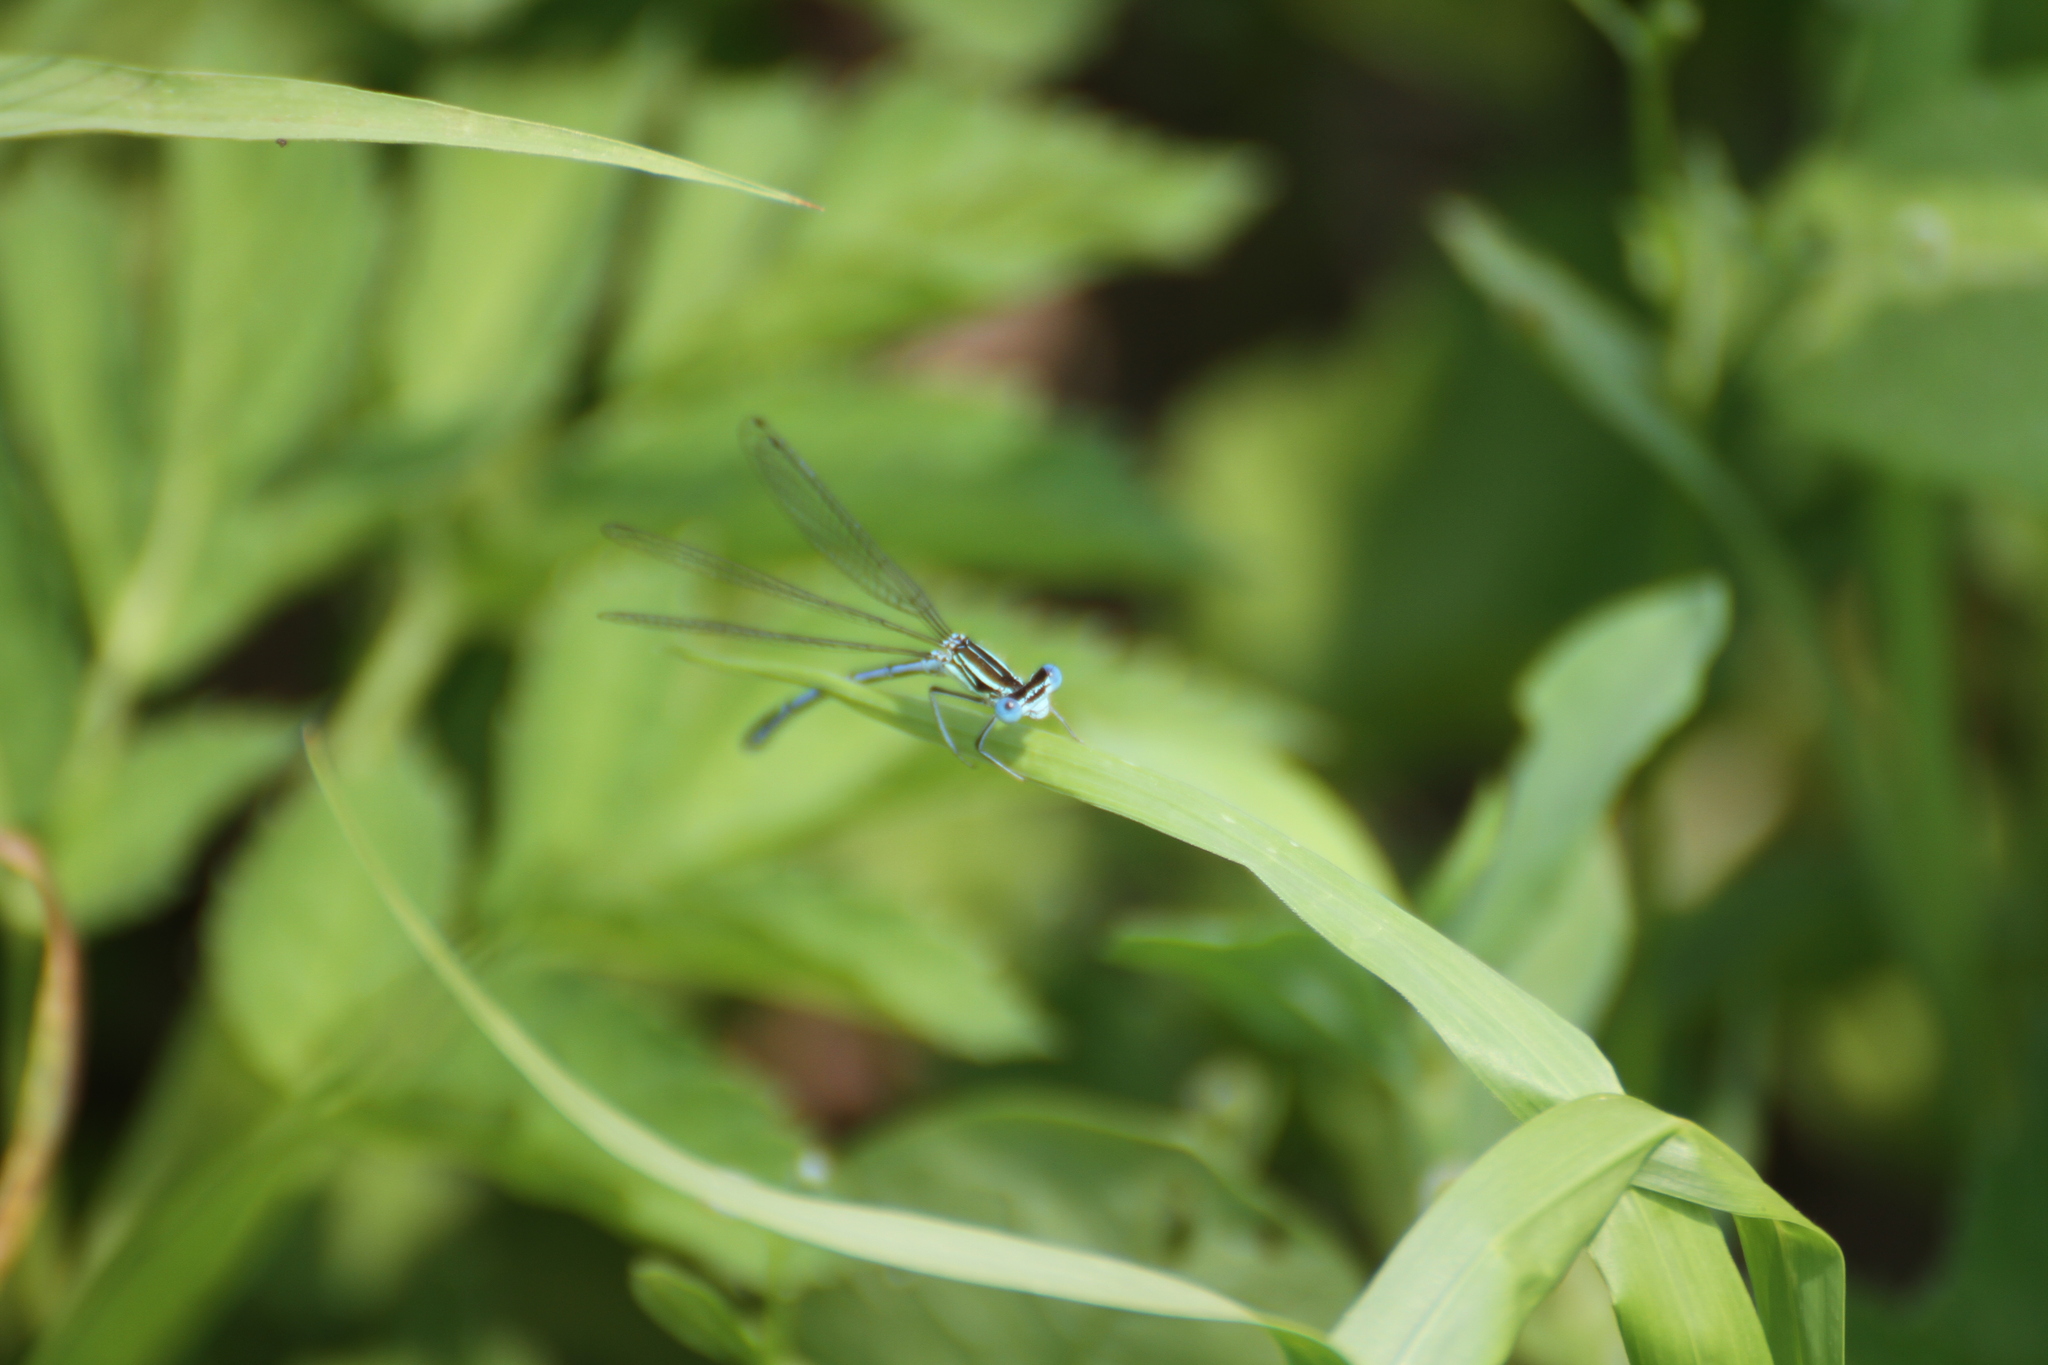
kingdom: Animalia
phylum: Arthropoda
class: Insecta
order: Odonata
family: Platycnemididae
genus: Platycnemis
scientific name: Platycnemis pennipes
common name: White-legged damselfly
